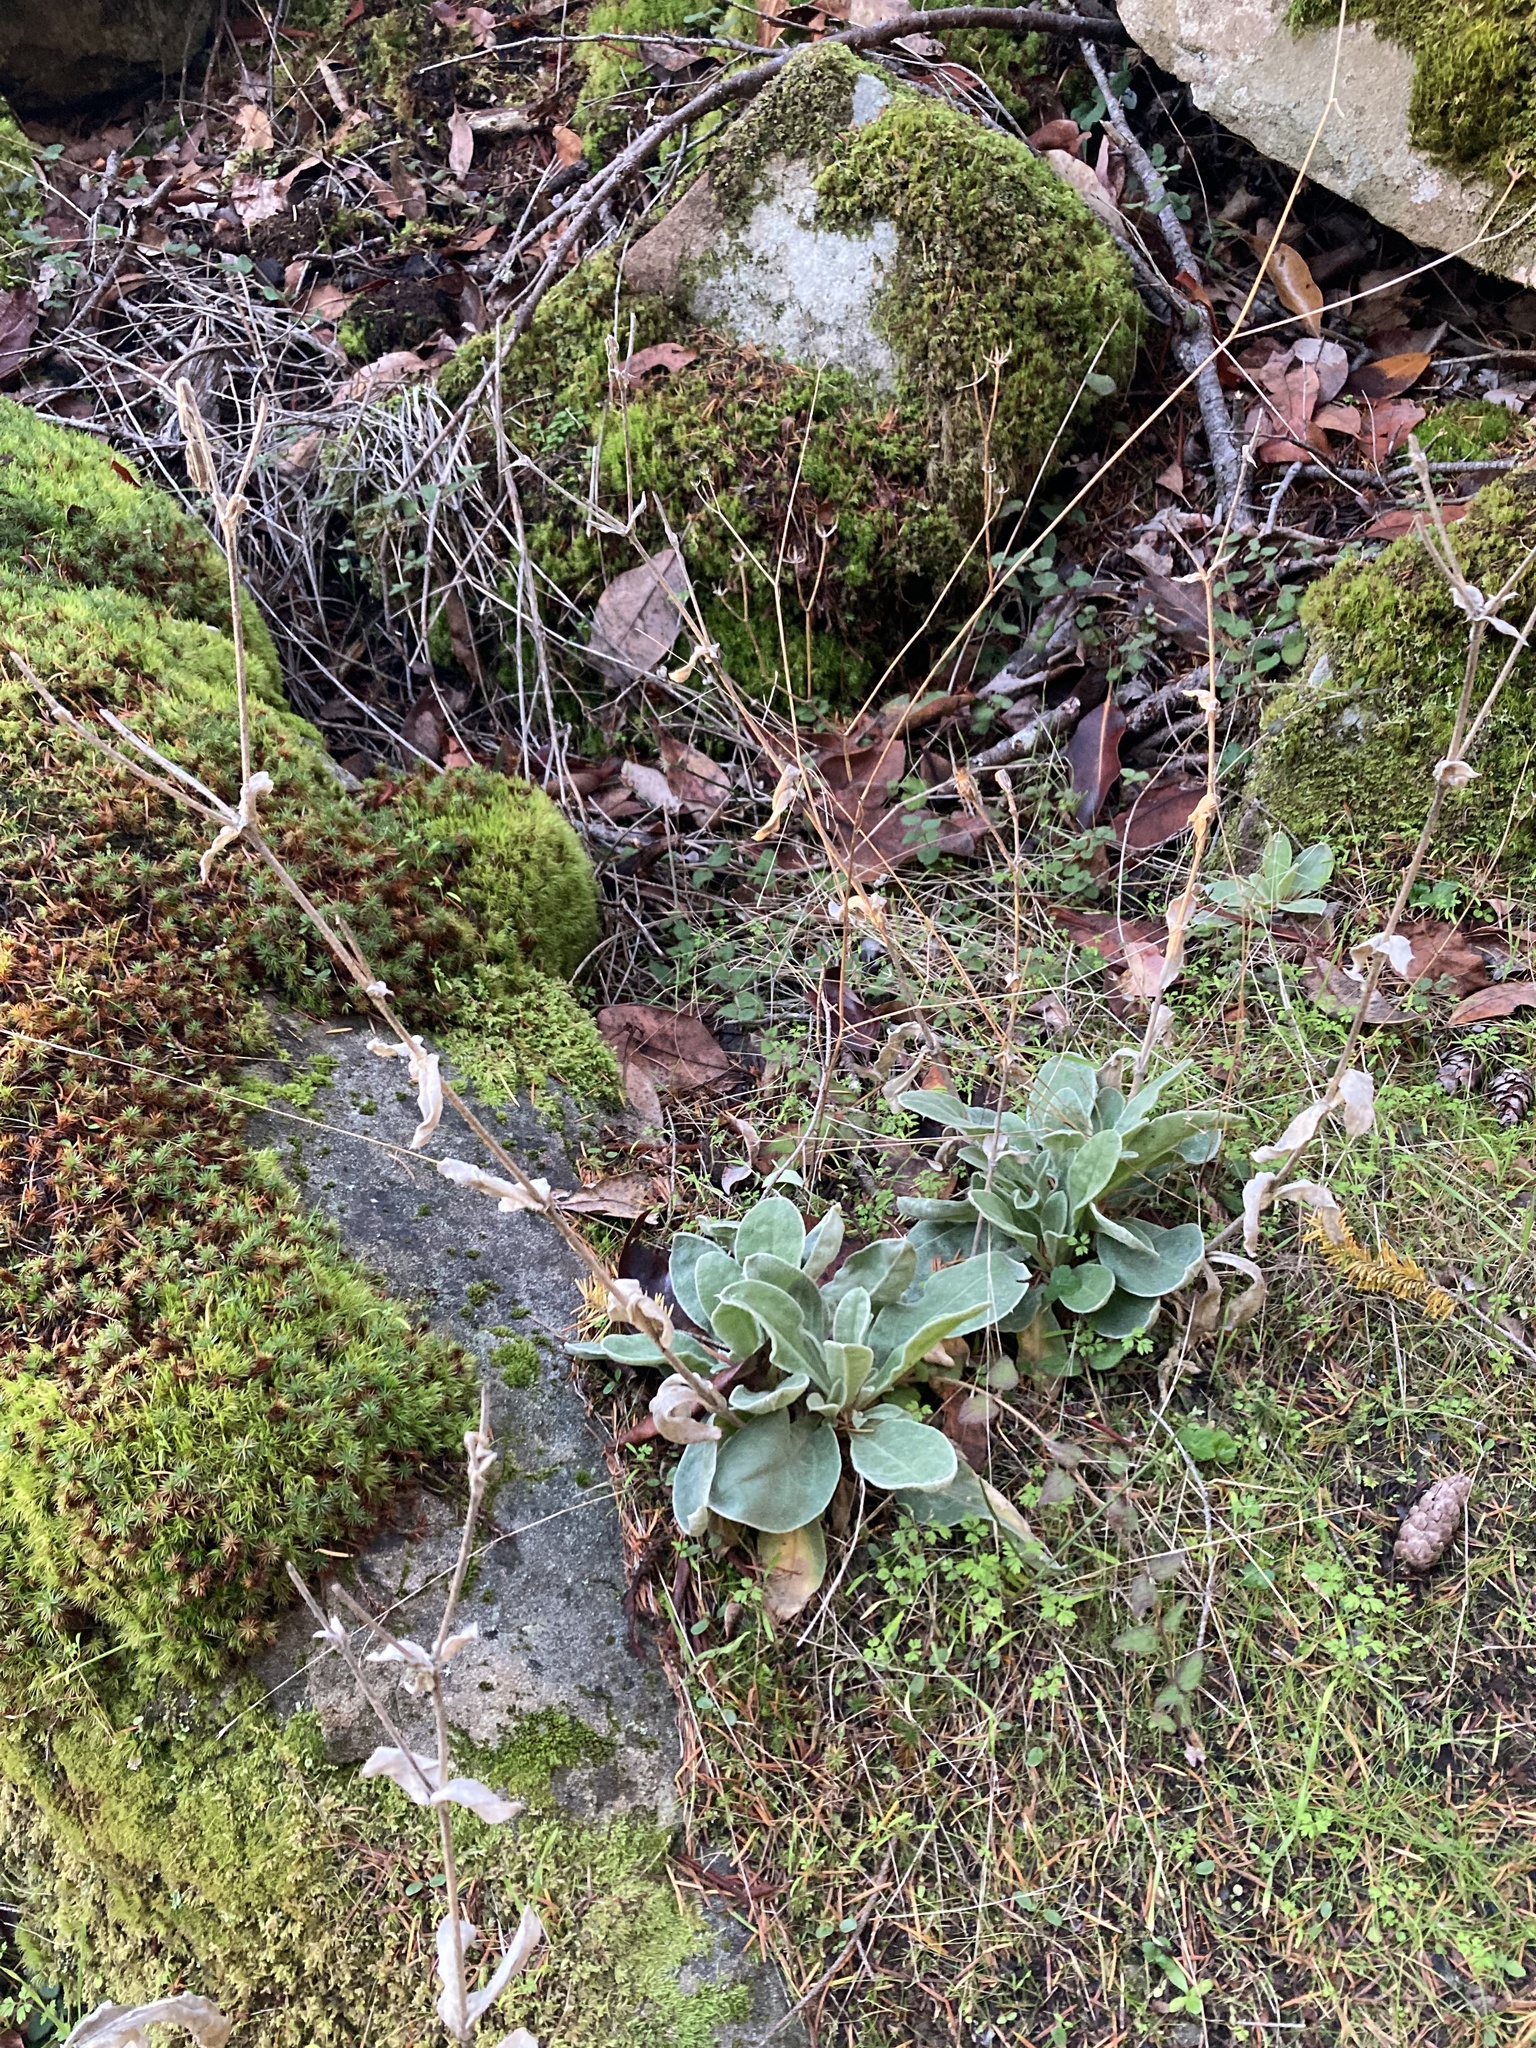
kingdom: Plantae
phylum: Tracheophyta
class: Magnoliopsida
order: Caryophyllales
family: Caryophyllaceae
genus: Silene
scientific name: Silene coronaria
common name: Rose campion
